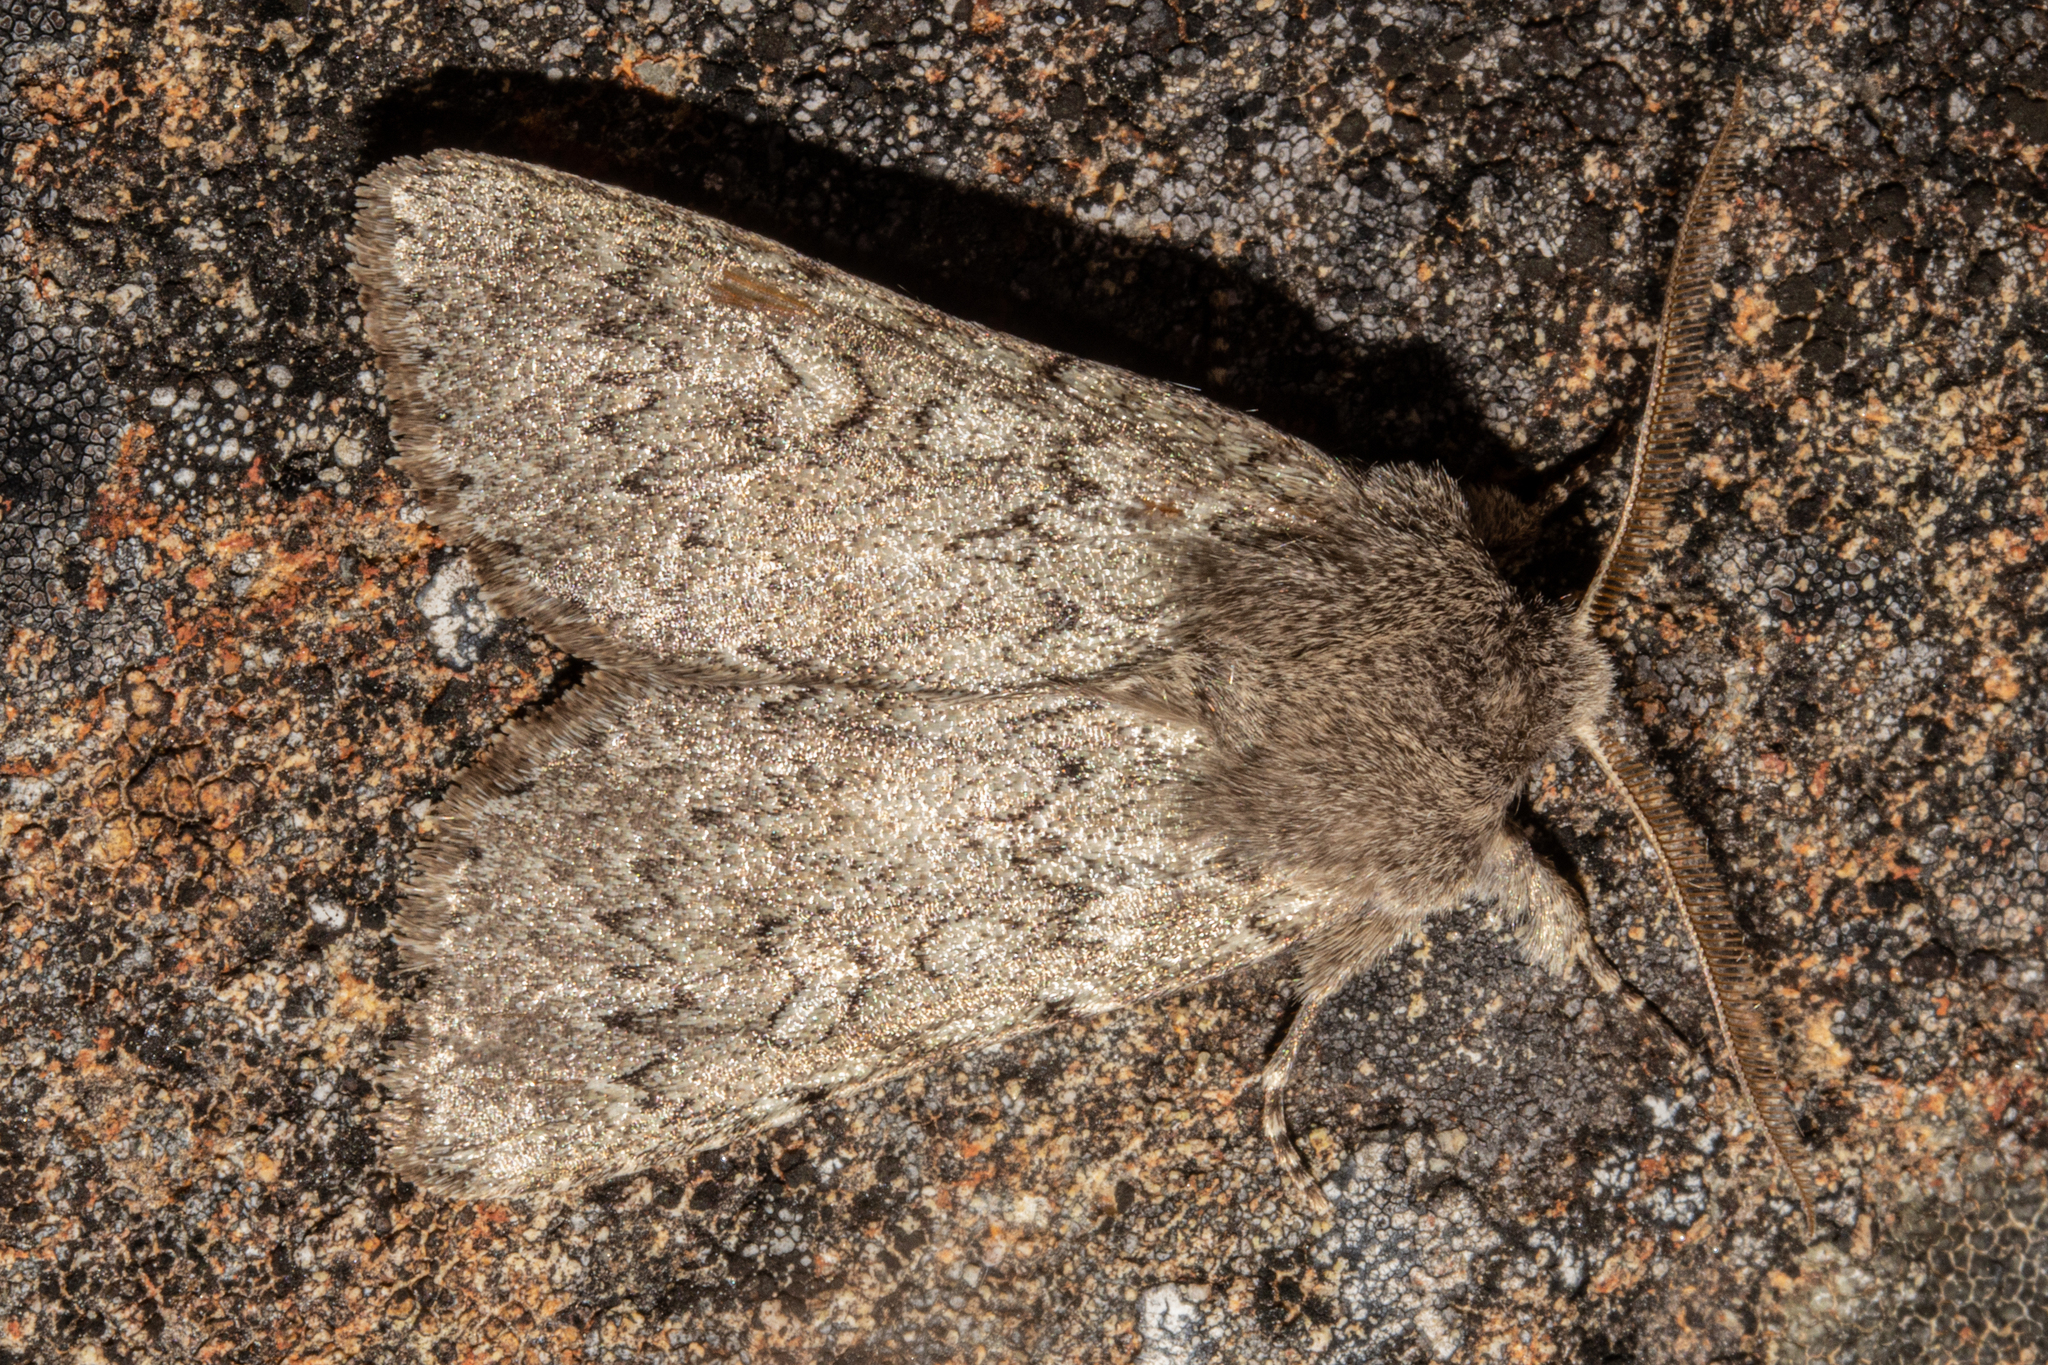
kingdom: Animalia
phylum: Arthropoda
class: Insecta
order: Lepidoptera
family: Noctuidae
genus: Ichneutica
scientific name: Ichneutica
